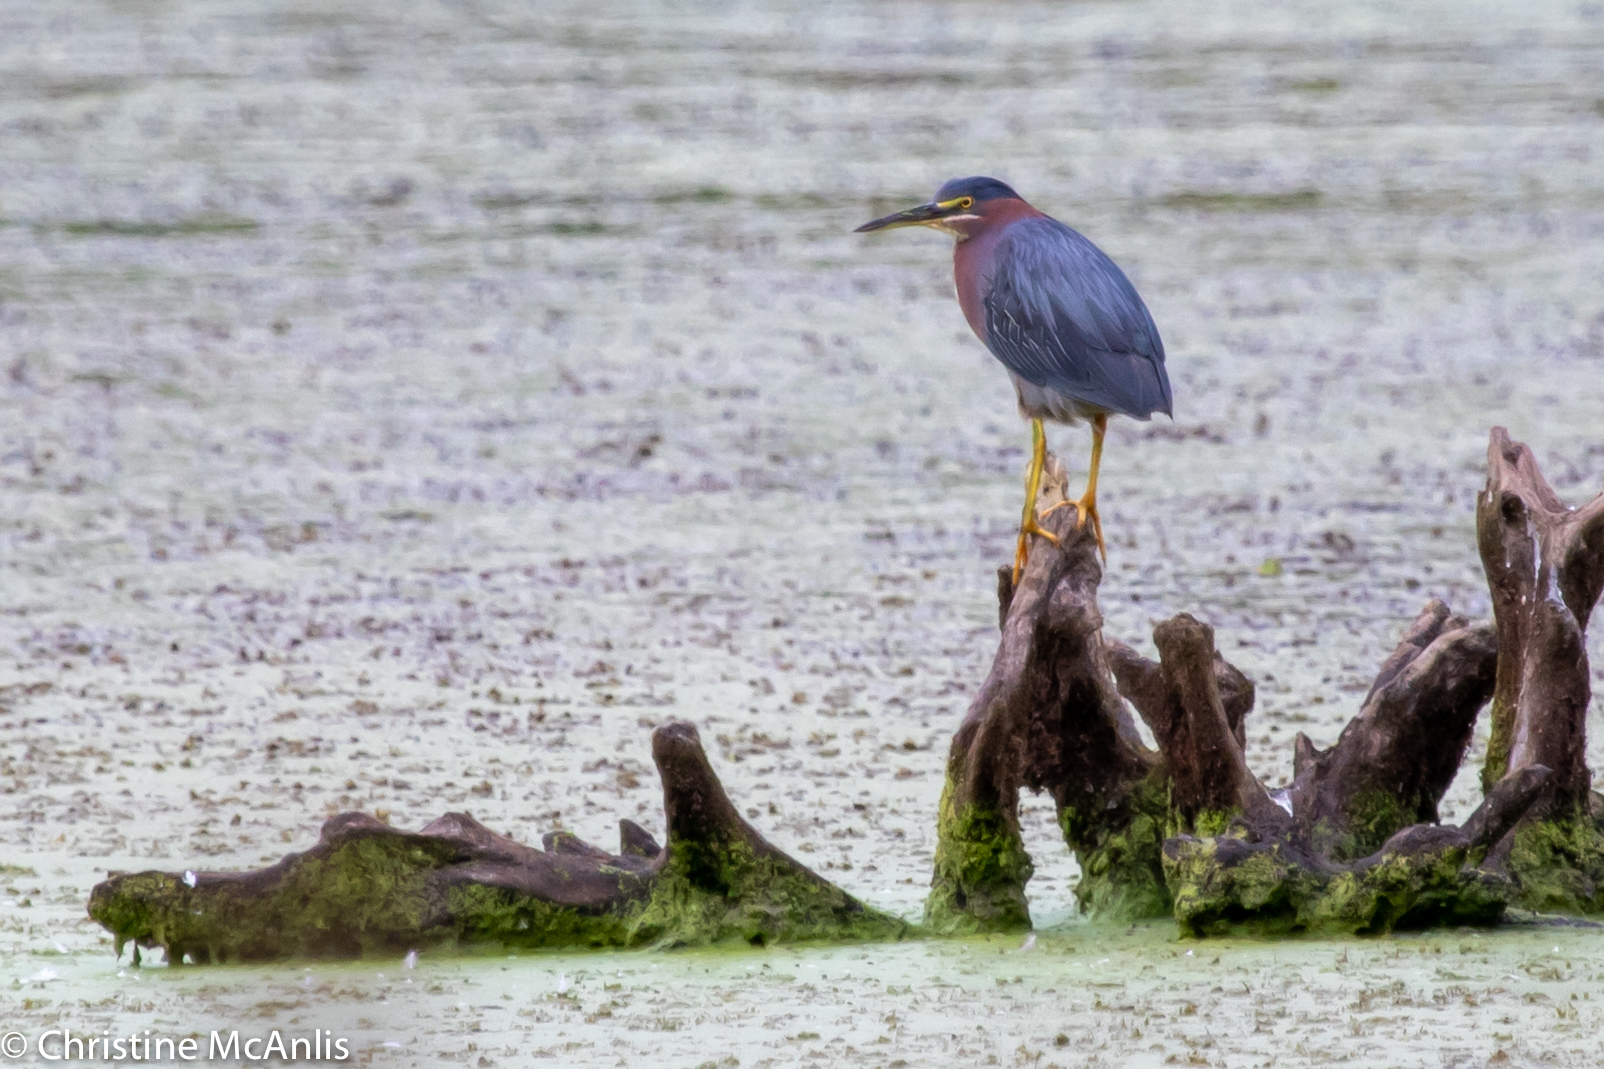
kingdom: Animalia
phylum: Chordata
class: Aves
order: Pelecaniformes
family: Ardeidae
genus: Butorides
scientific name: Butorides virescens
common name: Green heron
